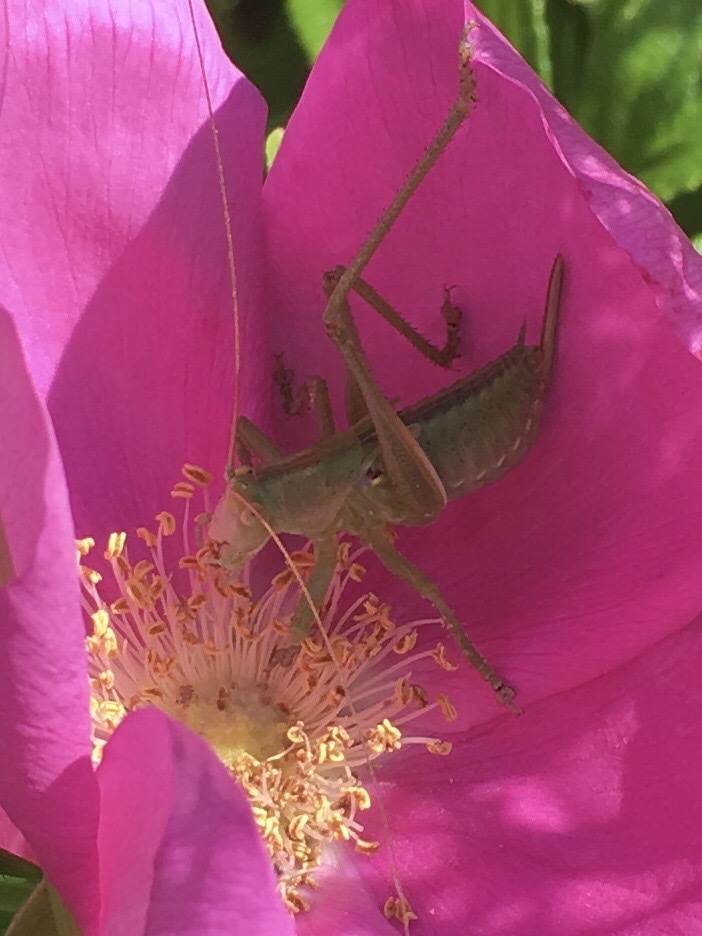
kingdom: Animalia
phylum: Arthropoda
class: Insecta
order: Orthoptera
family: Tettigoniidae
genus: Tettigonia
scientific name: Tettigonia viridissima
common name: Great green bush-cricket
